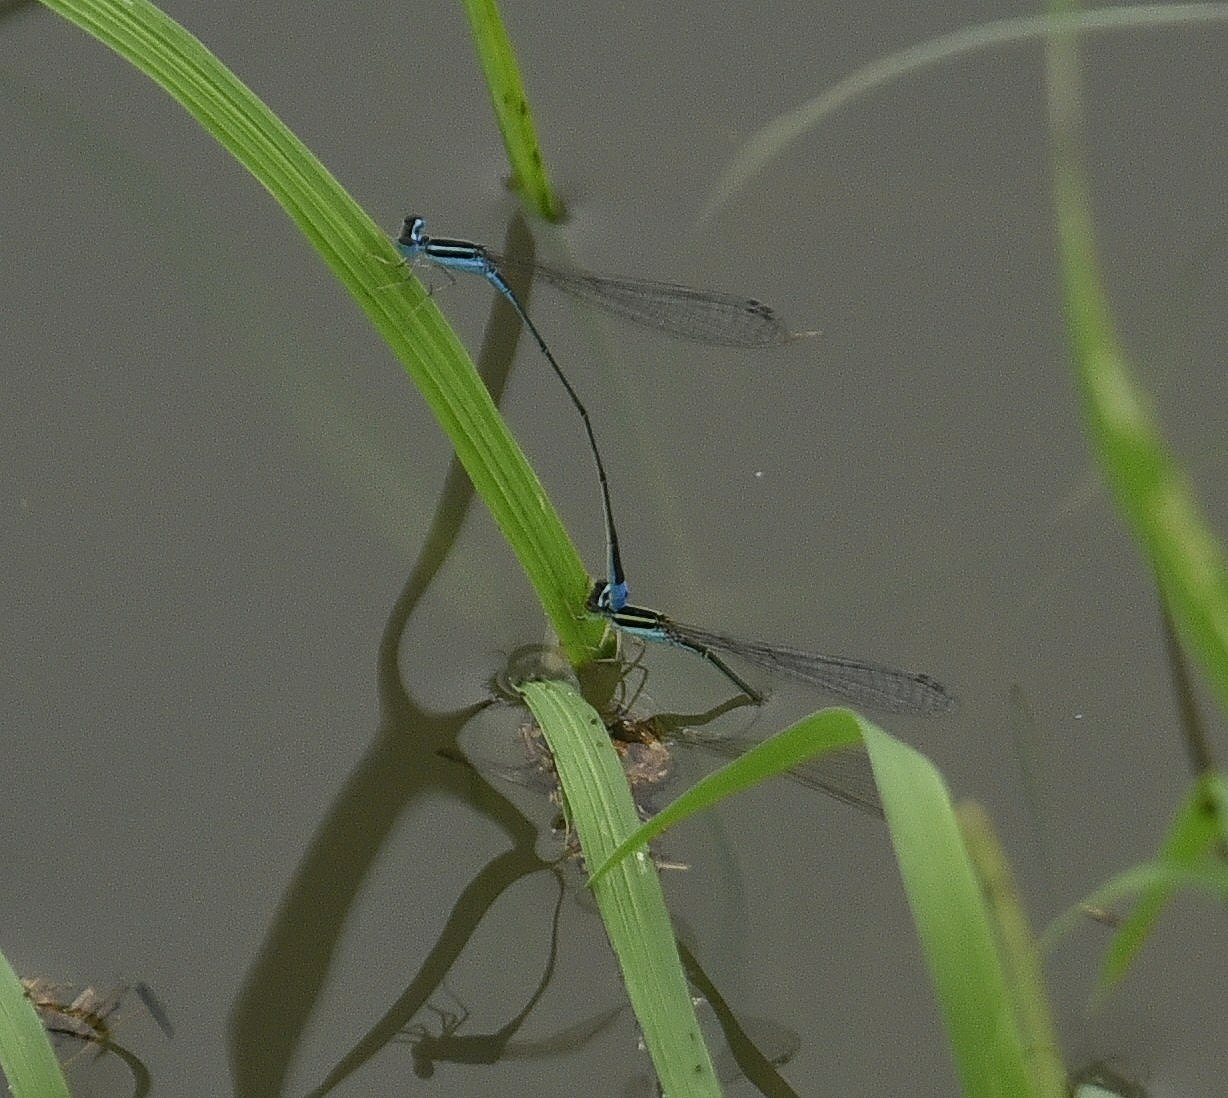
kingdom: Animalia
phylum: Arthropoda
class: Insecta
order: Odonata
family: Coenagrionidae
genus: Aciagrion
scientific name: Aciagrion occidentale
